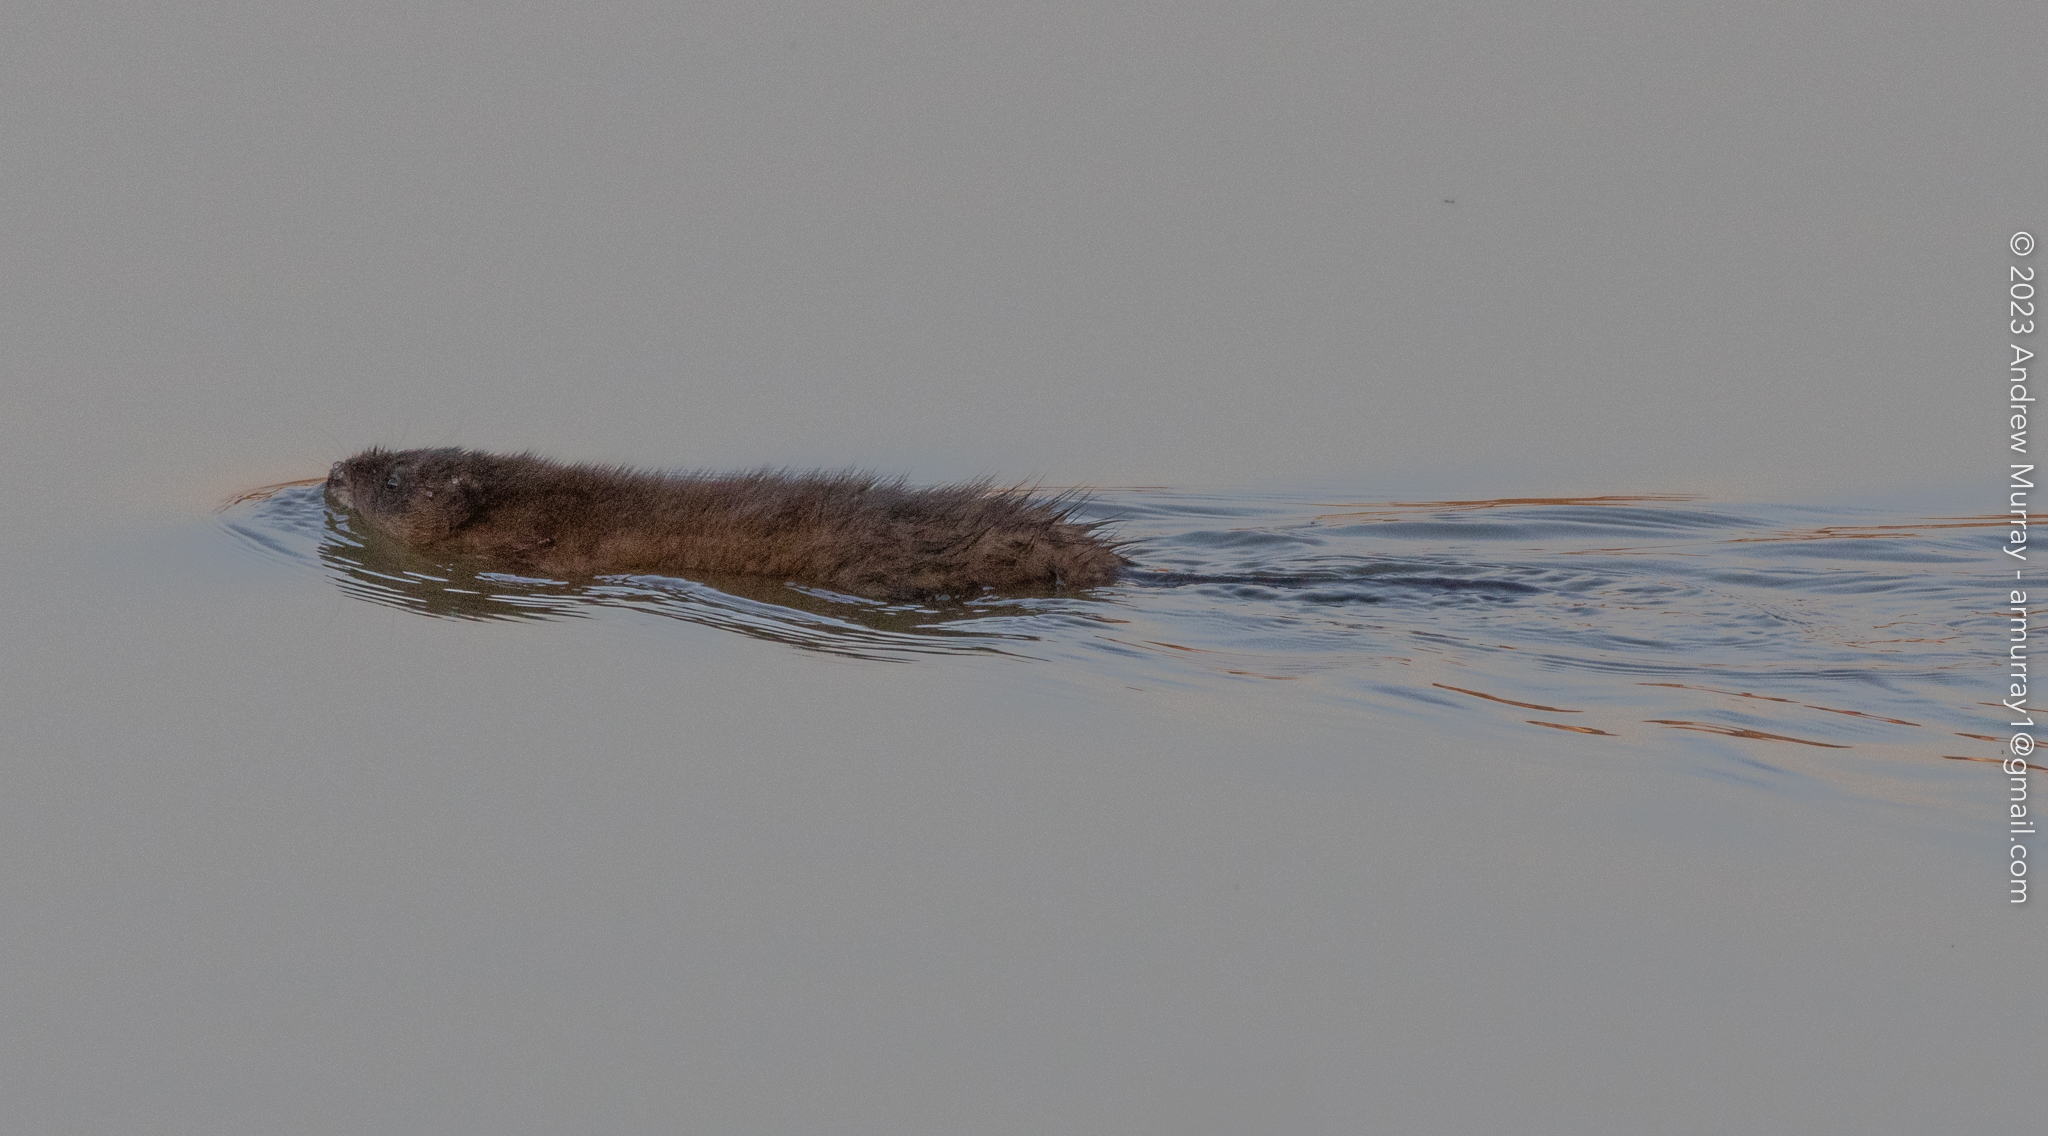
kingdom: Animalia
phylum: Chordata
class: Mammalia
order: Rodentia
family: Cricetidae
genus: Ondatra
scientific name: Ondatra zibethicus
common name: Muskrat
